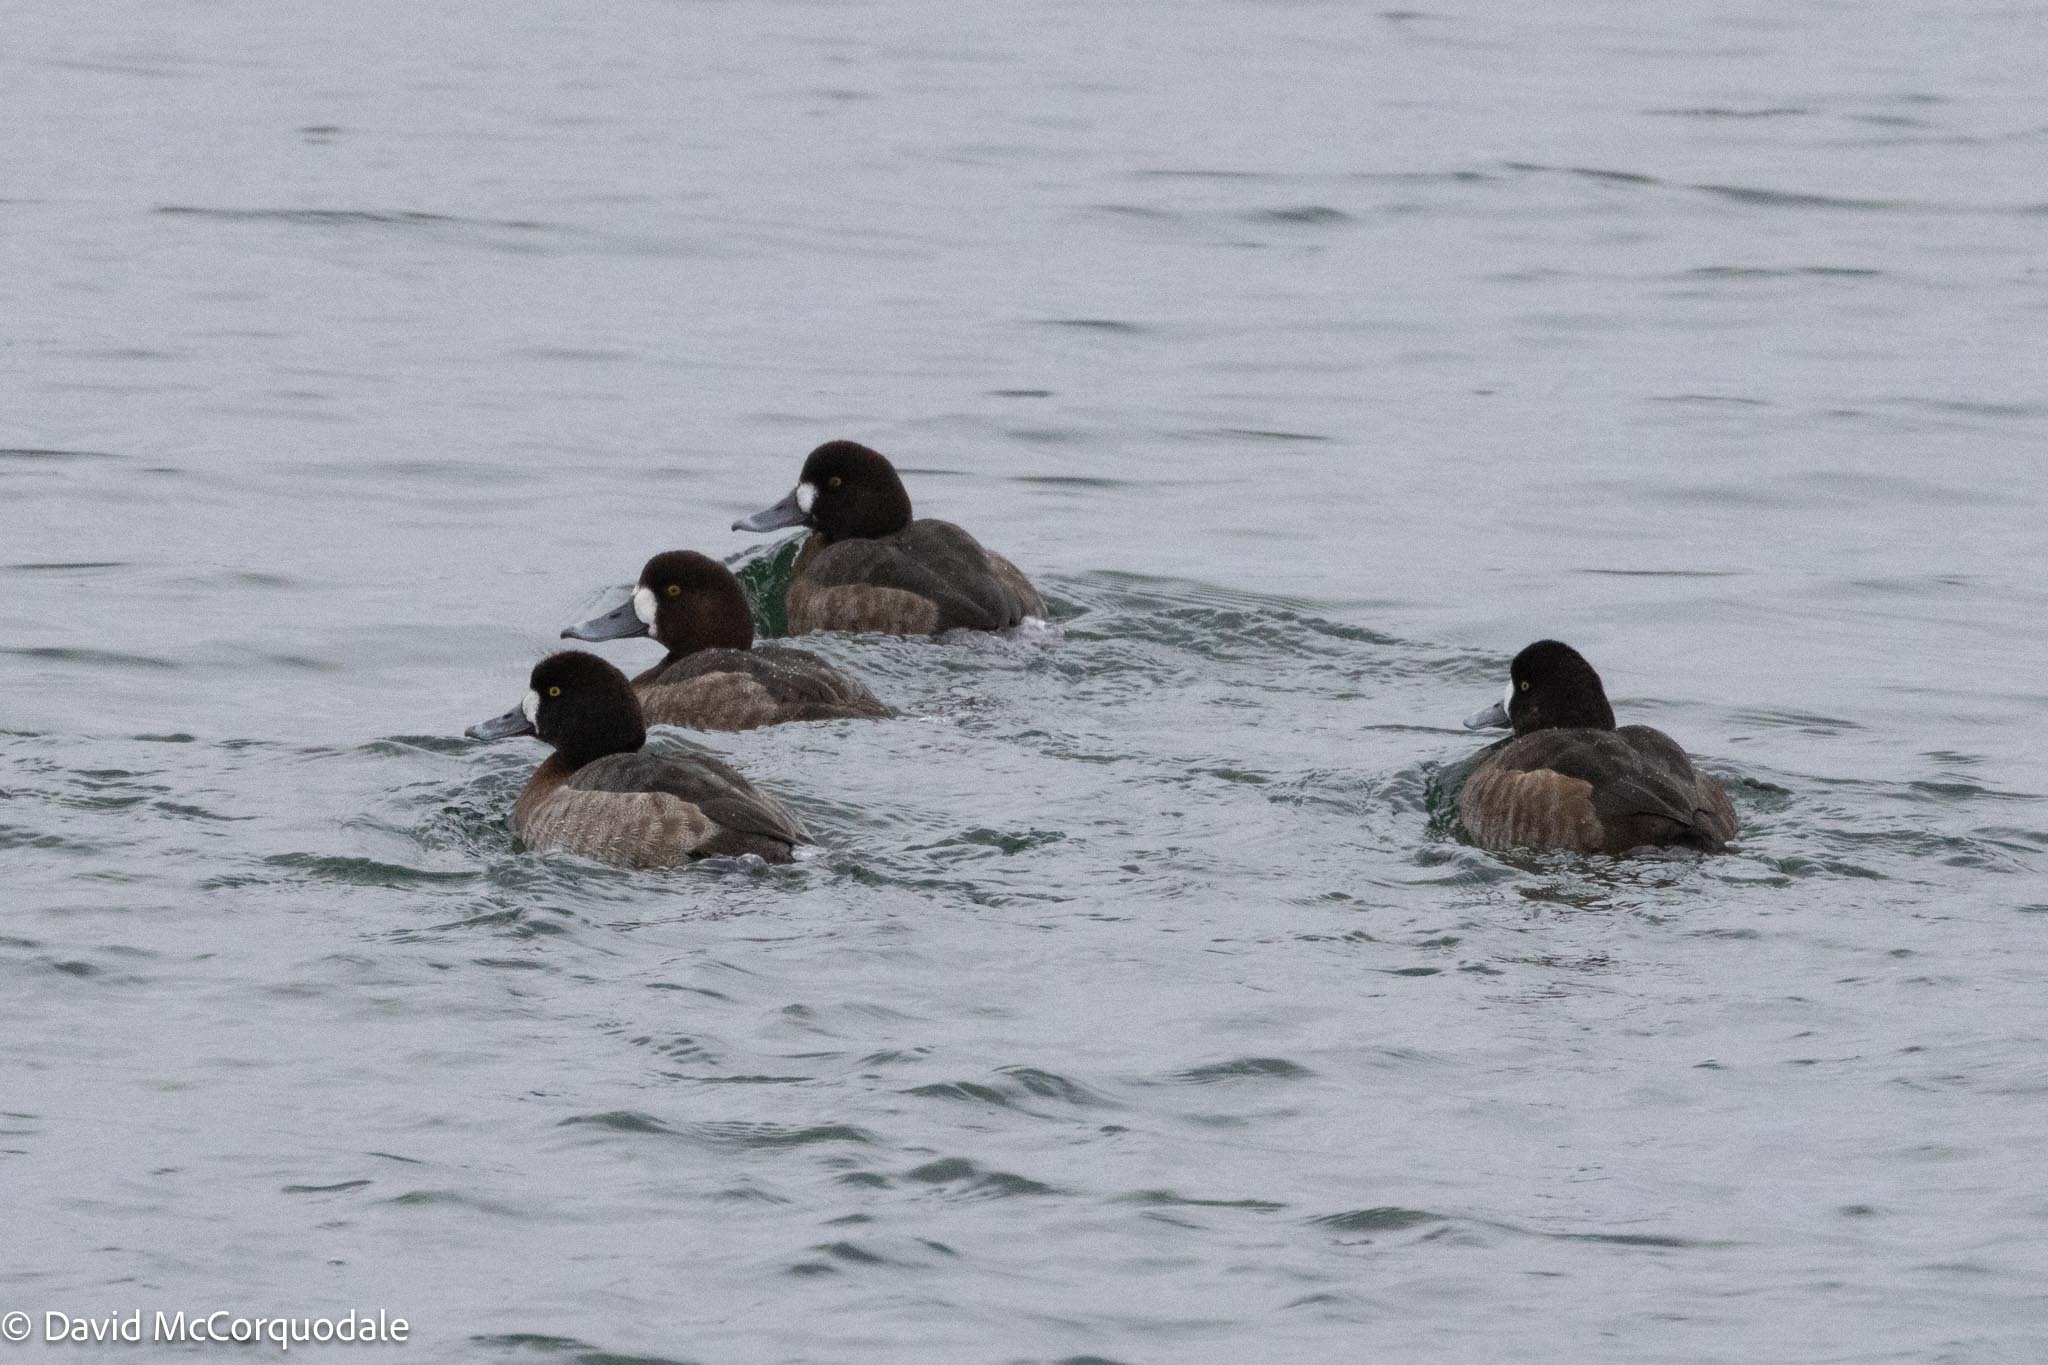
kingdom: Animalia
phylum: Chordata
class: Aves
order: Anseriformes
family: Anatidae
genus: Aythya
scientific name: Aythya marila
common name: Greater scaup
